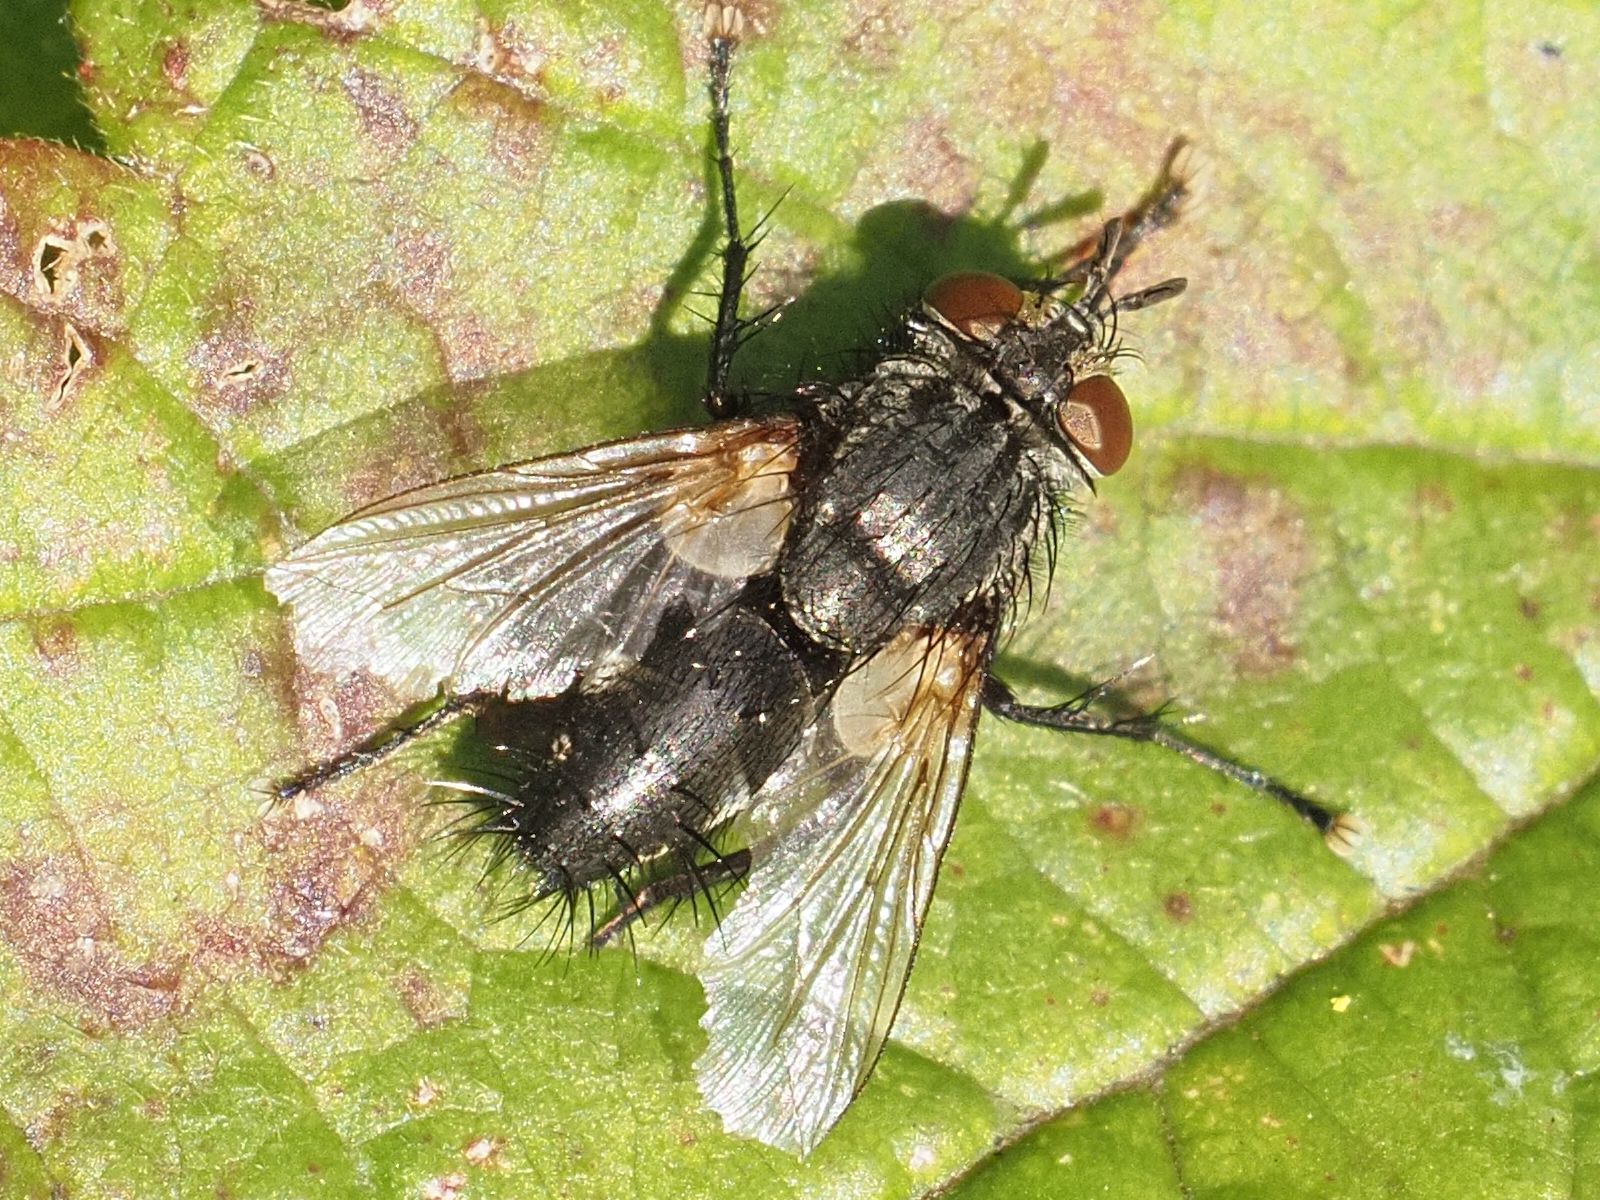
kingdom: Animalia
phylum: Arthropoda
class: Insecta
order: Diptera
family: Tachinidae
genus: Voria
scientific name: Voria ruralis
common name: Parasitic fly
